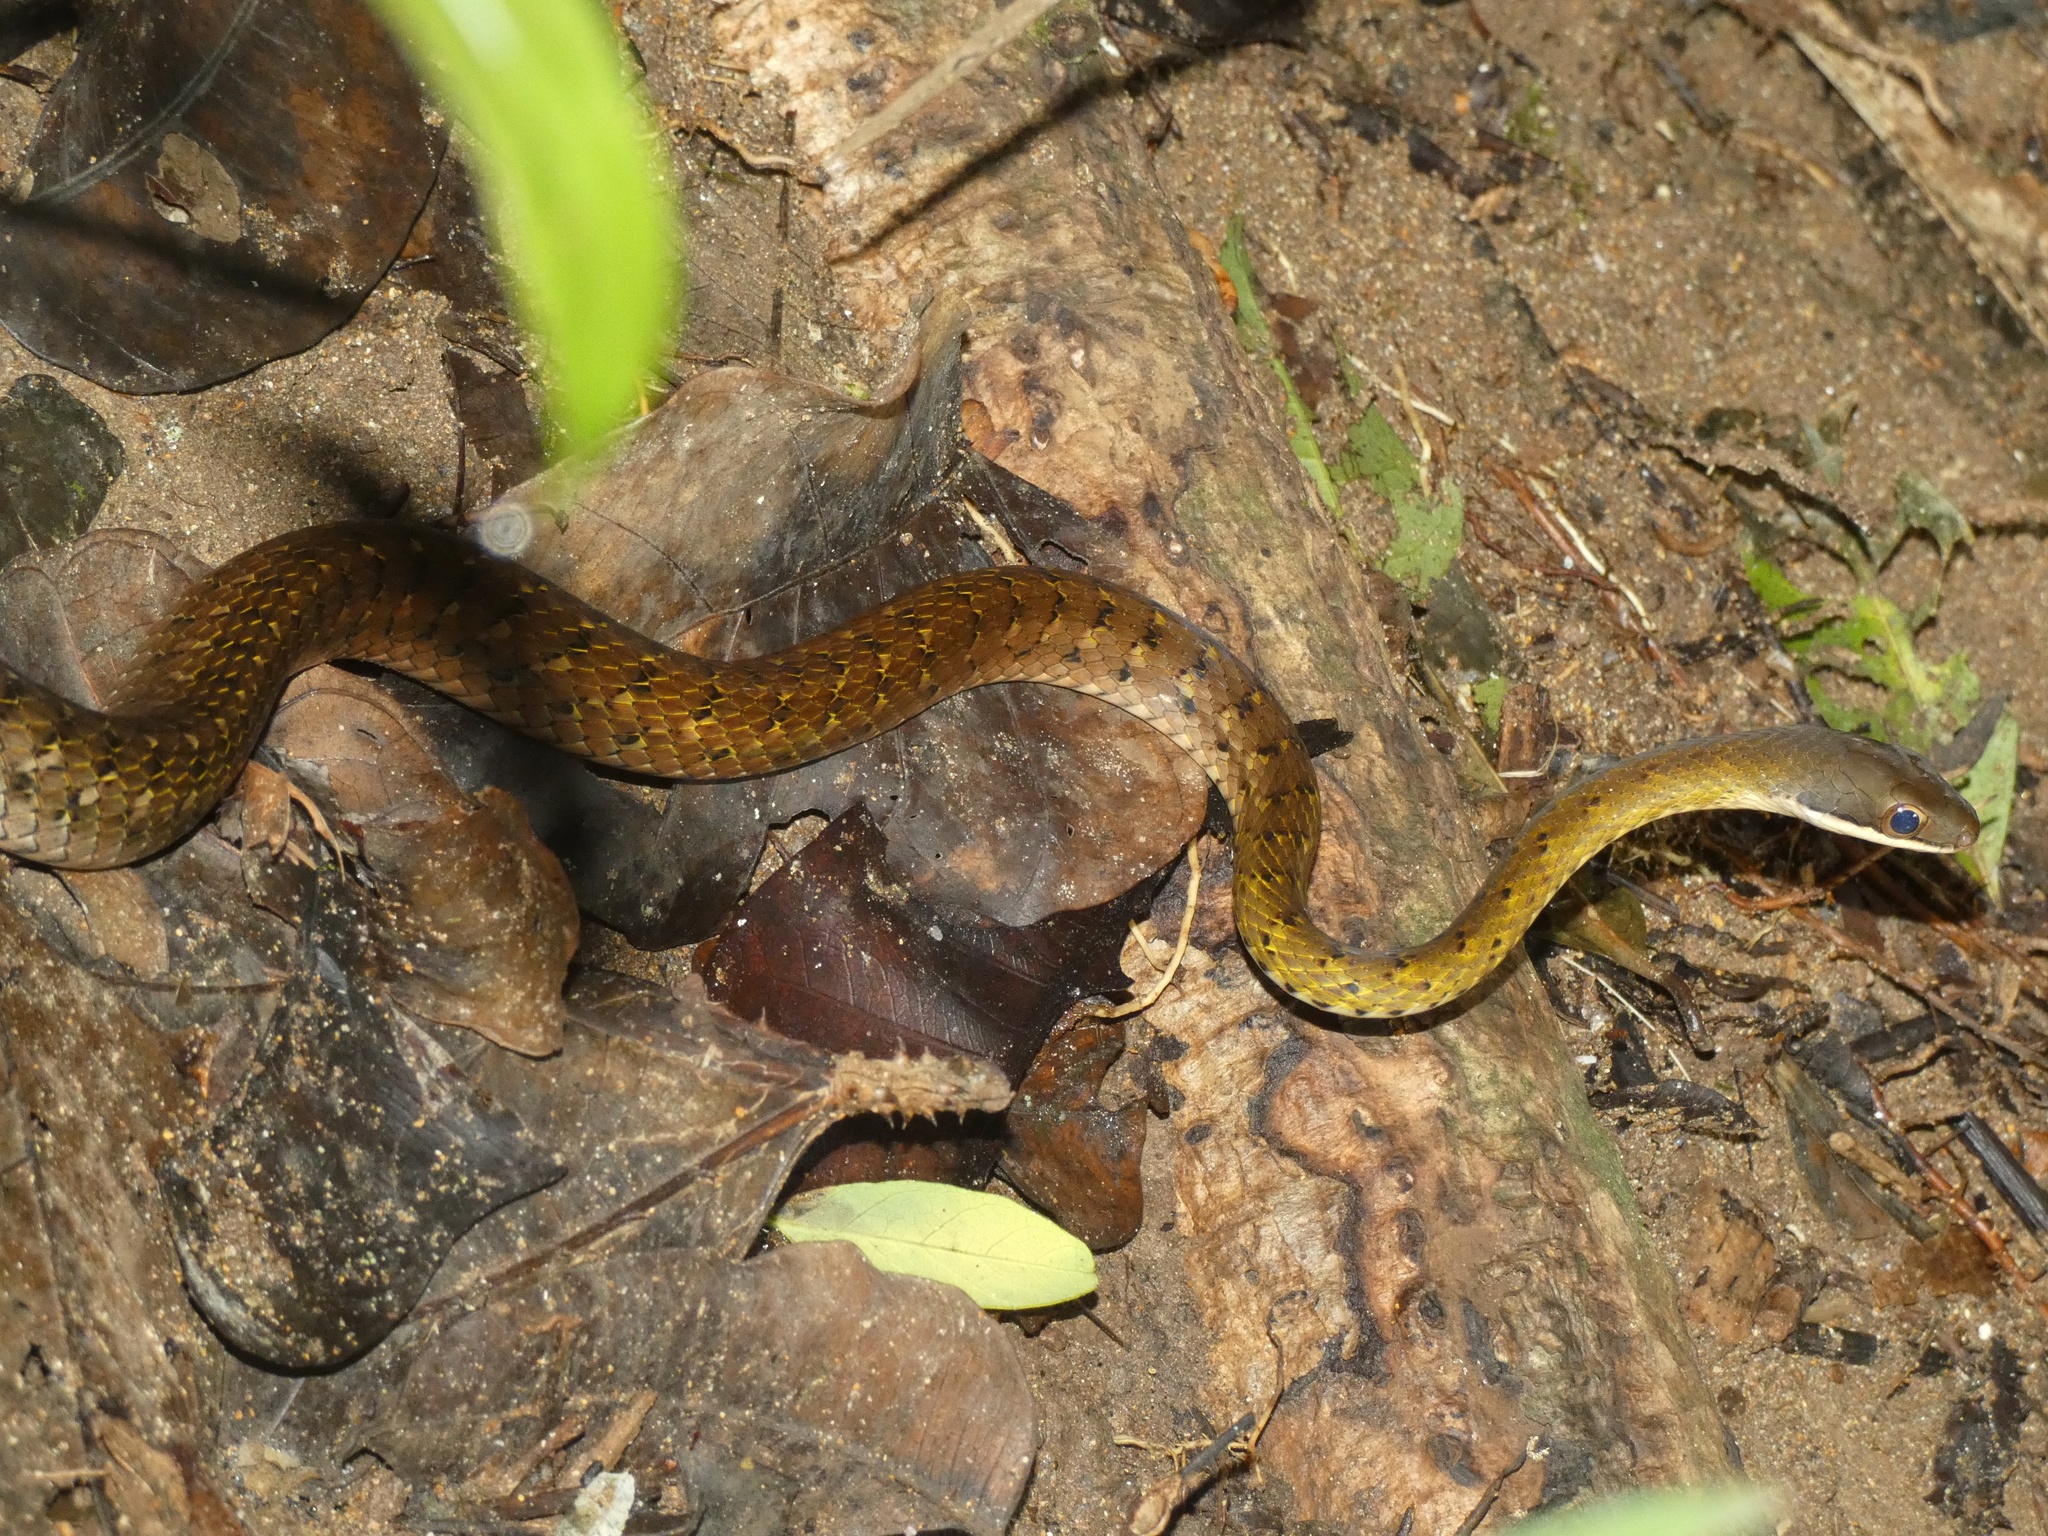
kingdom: Animalia
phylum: Chordata
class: Squamata
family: Colubridae
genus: Dendrophidion
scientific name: Dendrophidion percarinatum
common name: South american forest racer
